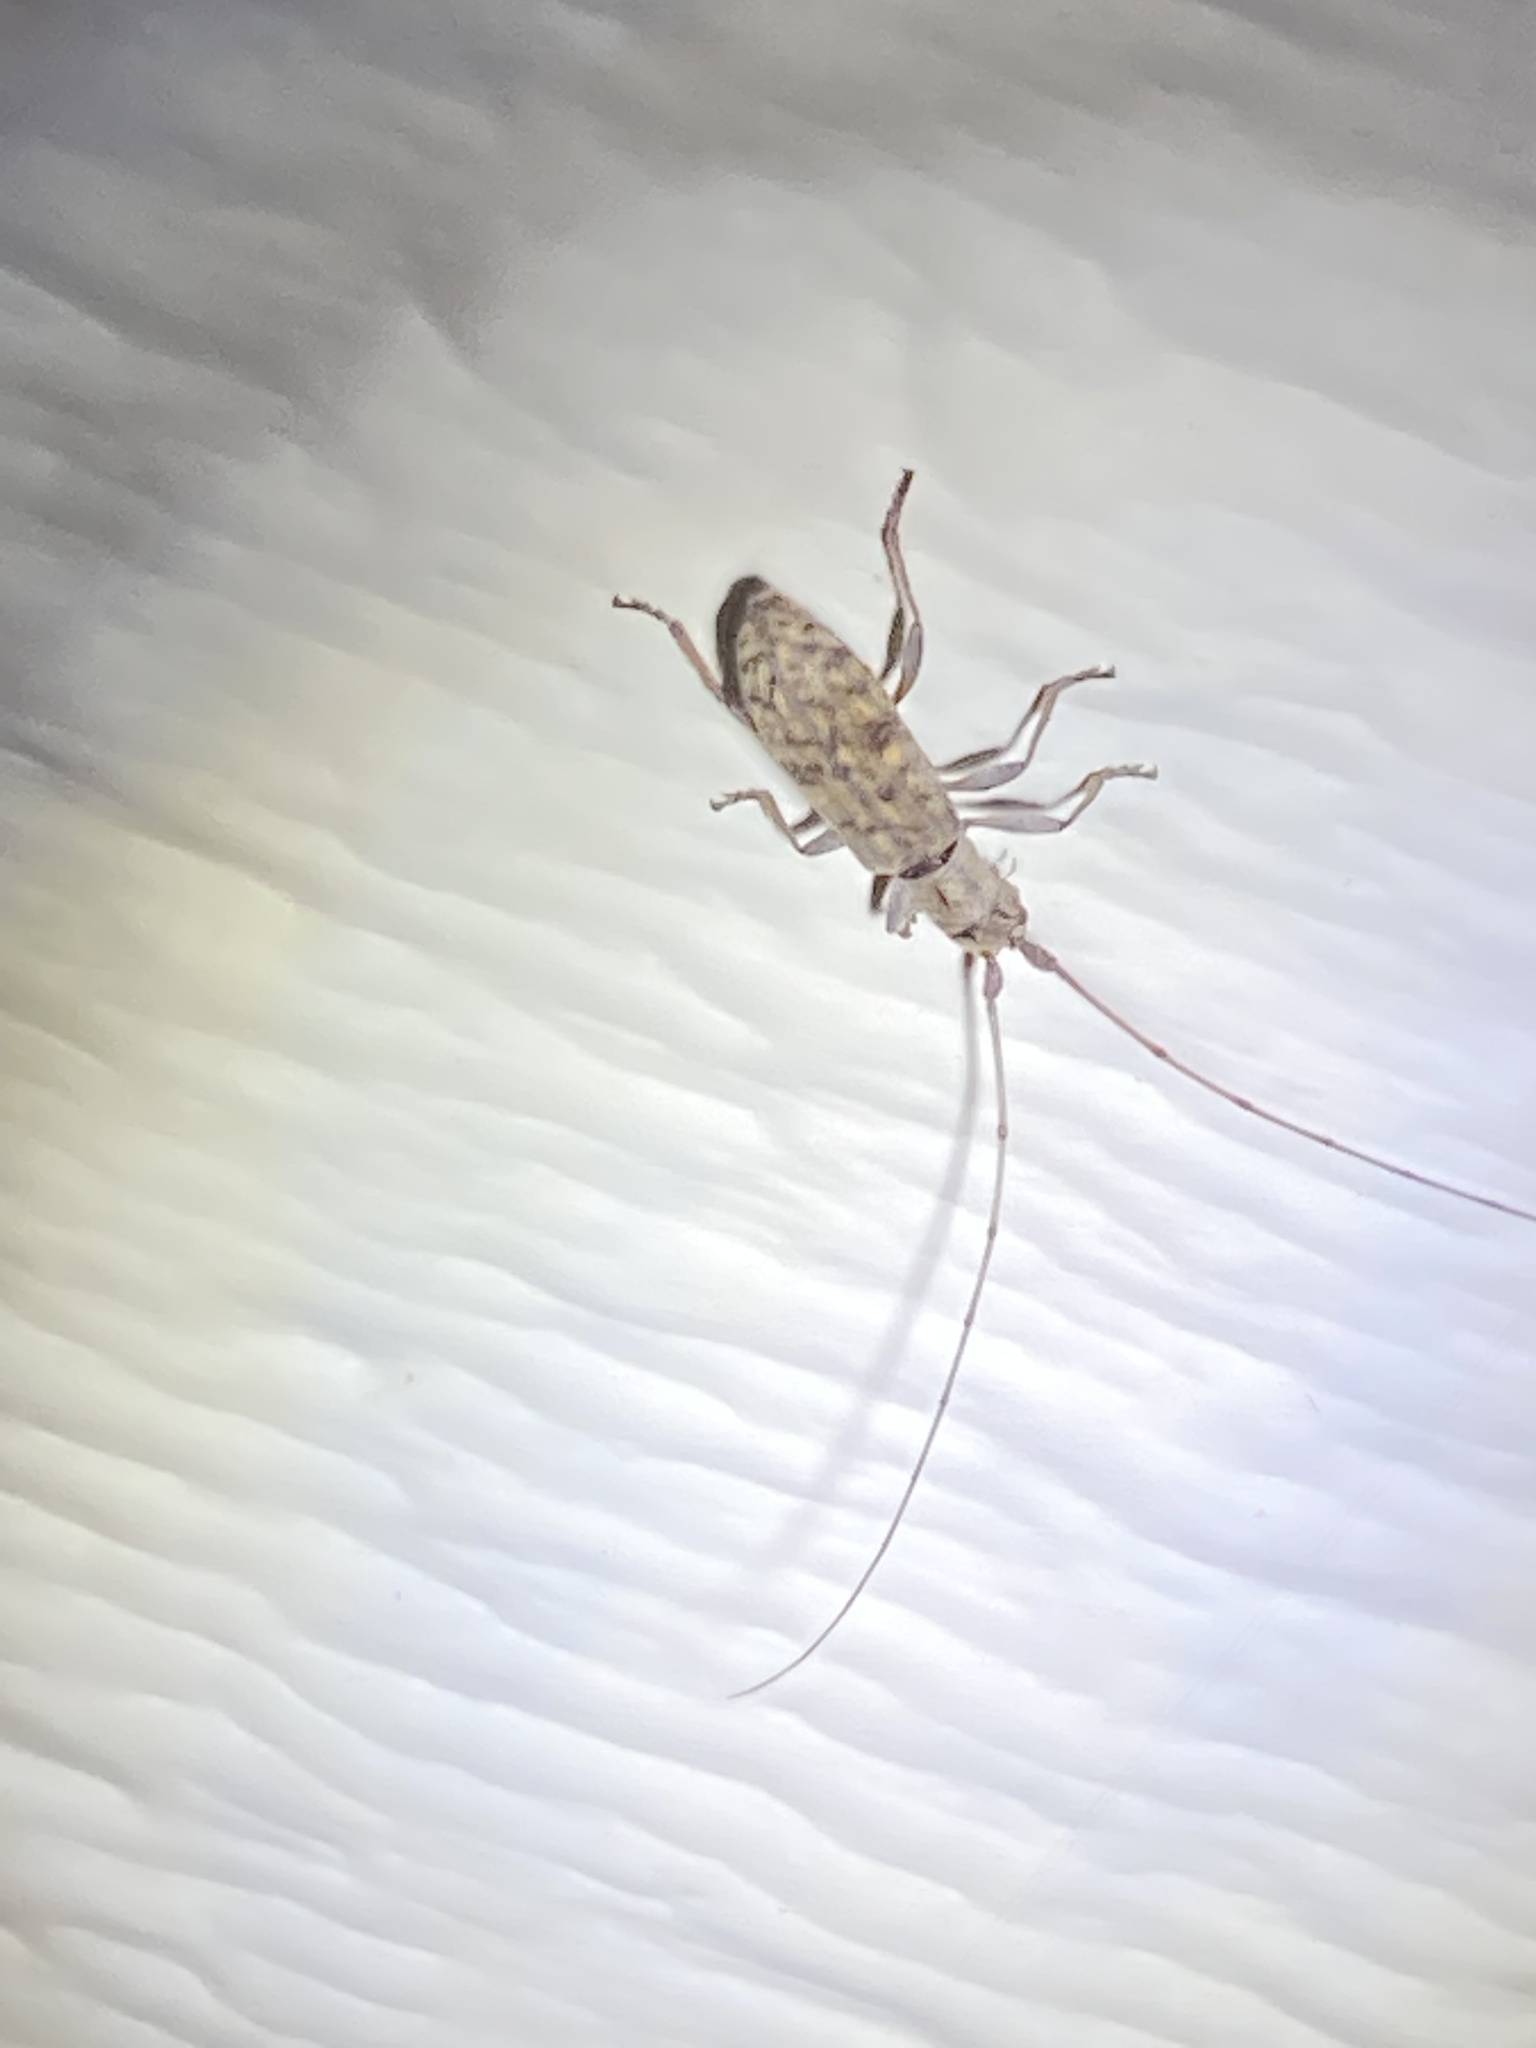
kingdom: Animalia
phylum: Arthropoda
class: Insecta
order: Coleoptera
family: Cerambycidae
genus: Dorcaschema
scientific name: Dorcaschema alternatum
